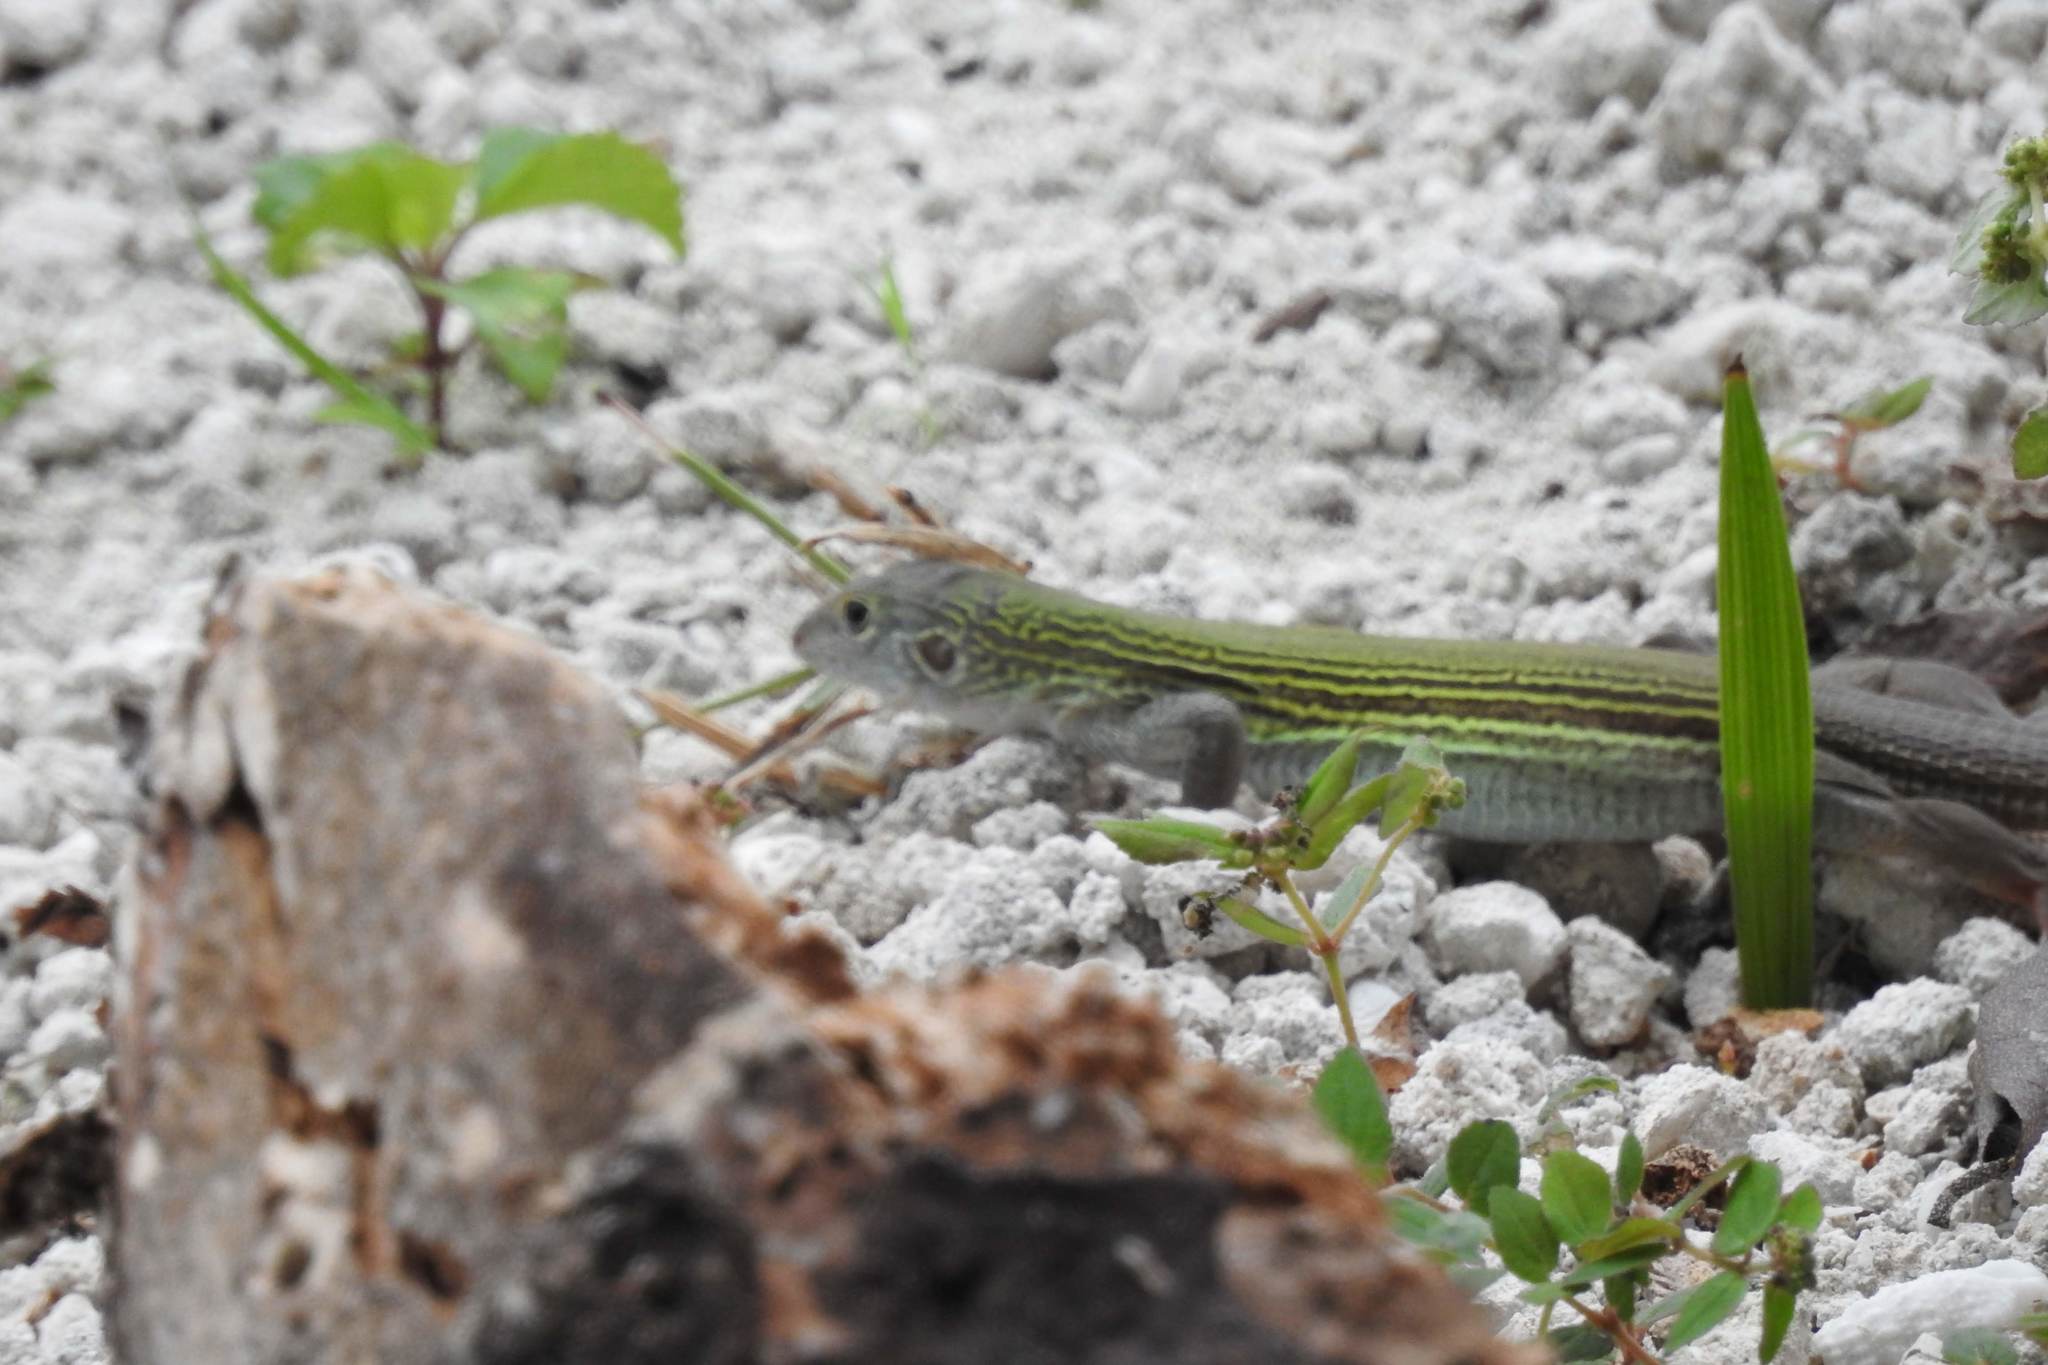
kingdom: Animalia
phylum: Chordata
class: Squamata
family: Teiidae
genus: Aspidoscelis
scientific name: Aspidoscelis cozumela
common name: Cozumel racerunner
